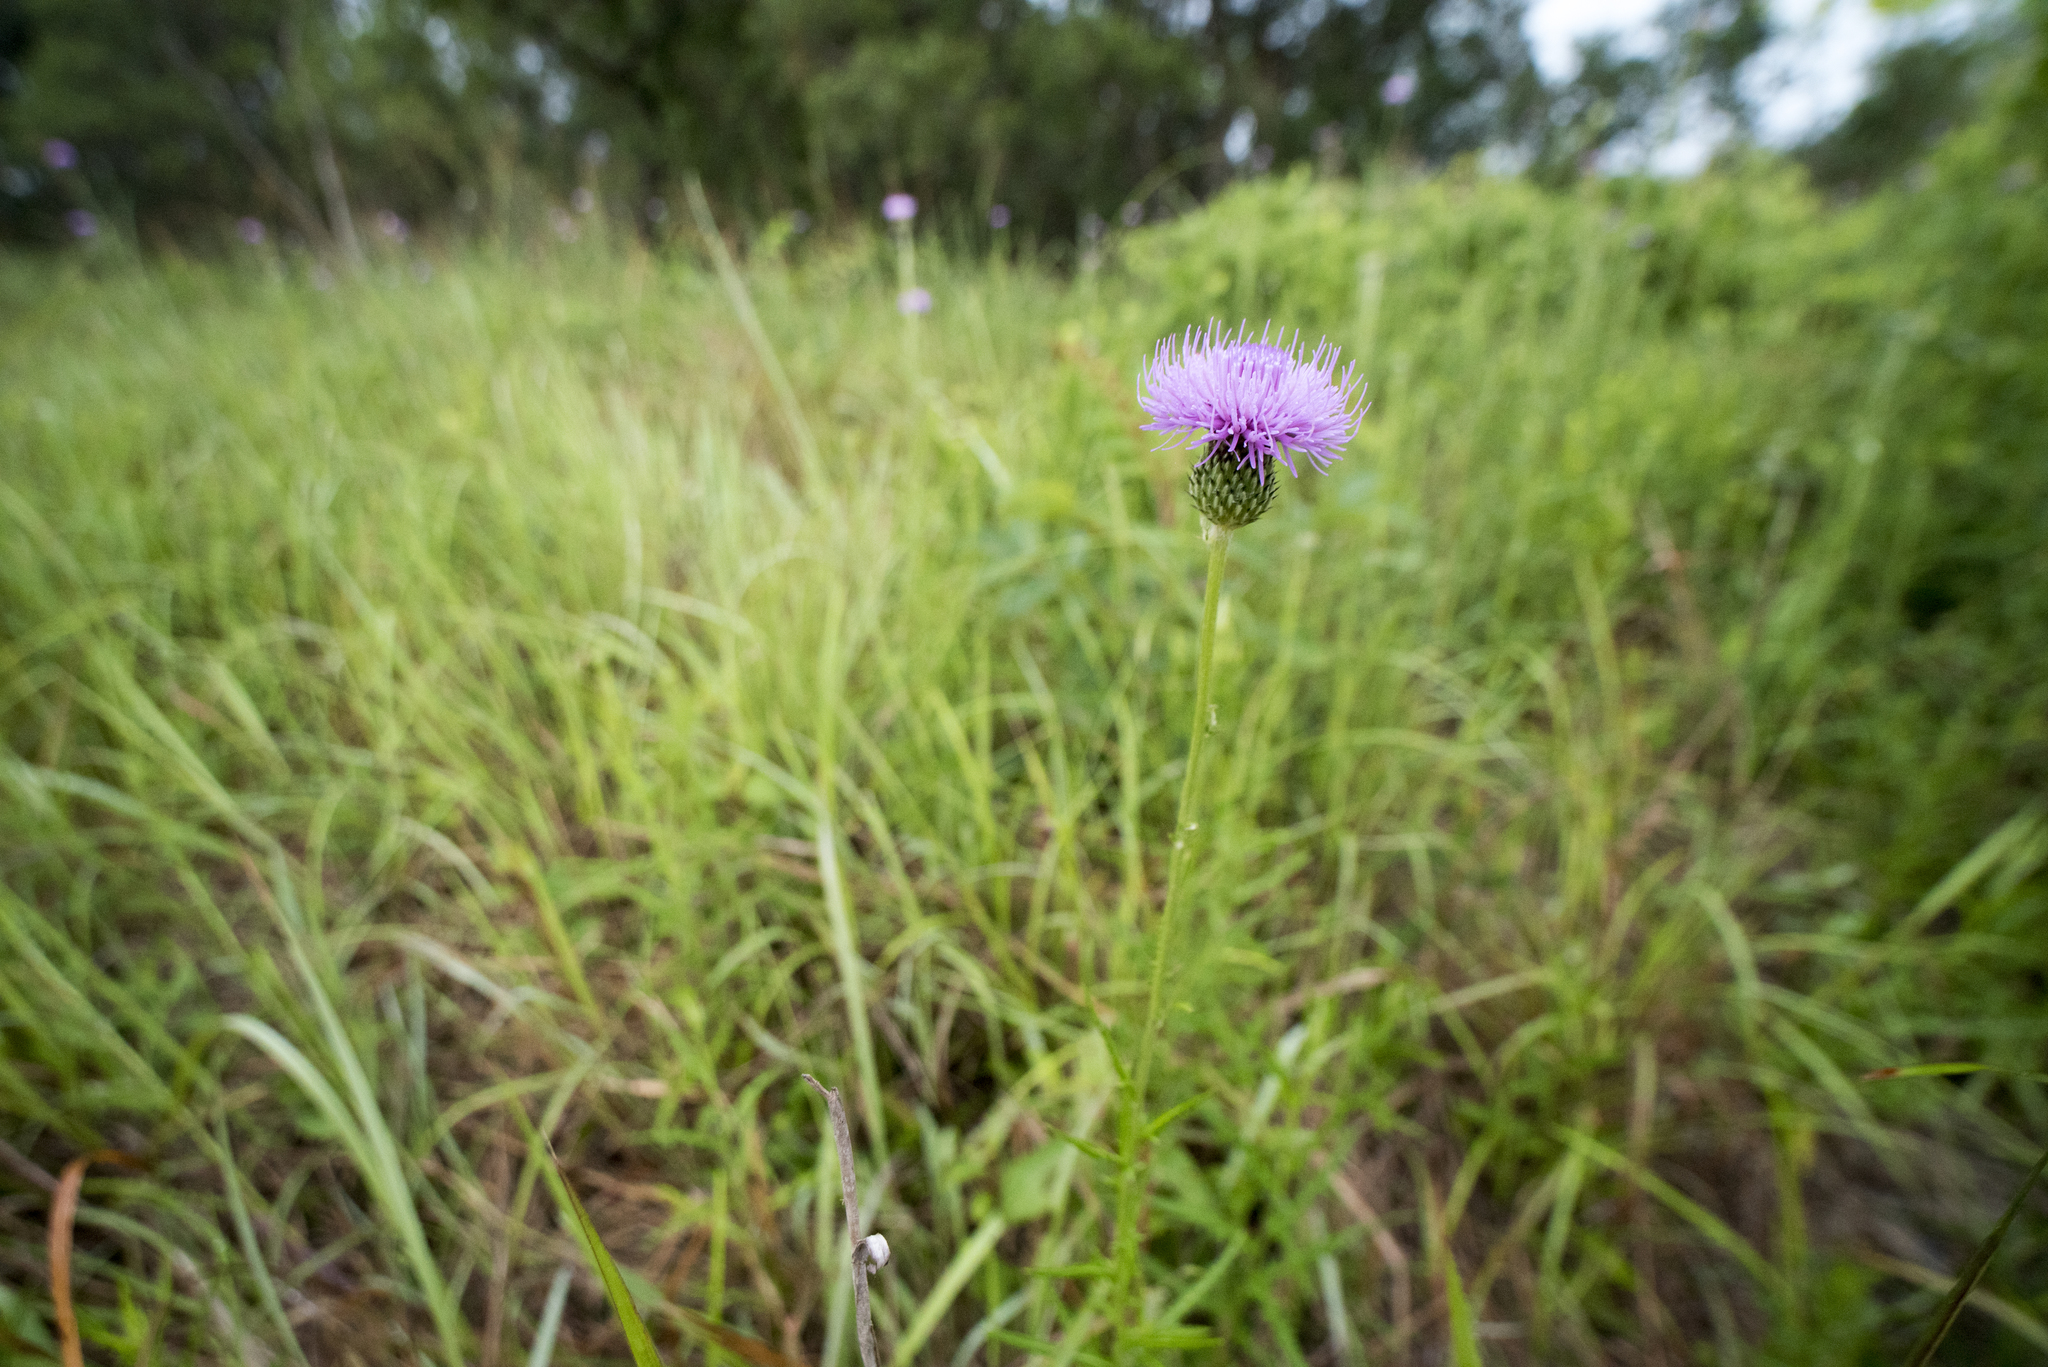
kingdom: Plantae
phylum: Tracheophyta
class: Magnoliopsida
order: Asterales
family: Asteraceae
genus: Cirsium
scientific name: Cirsium lineare
